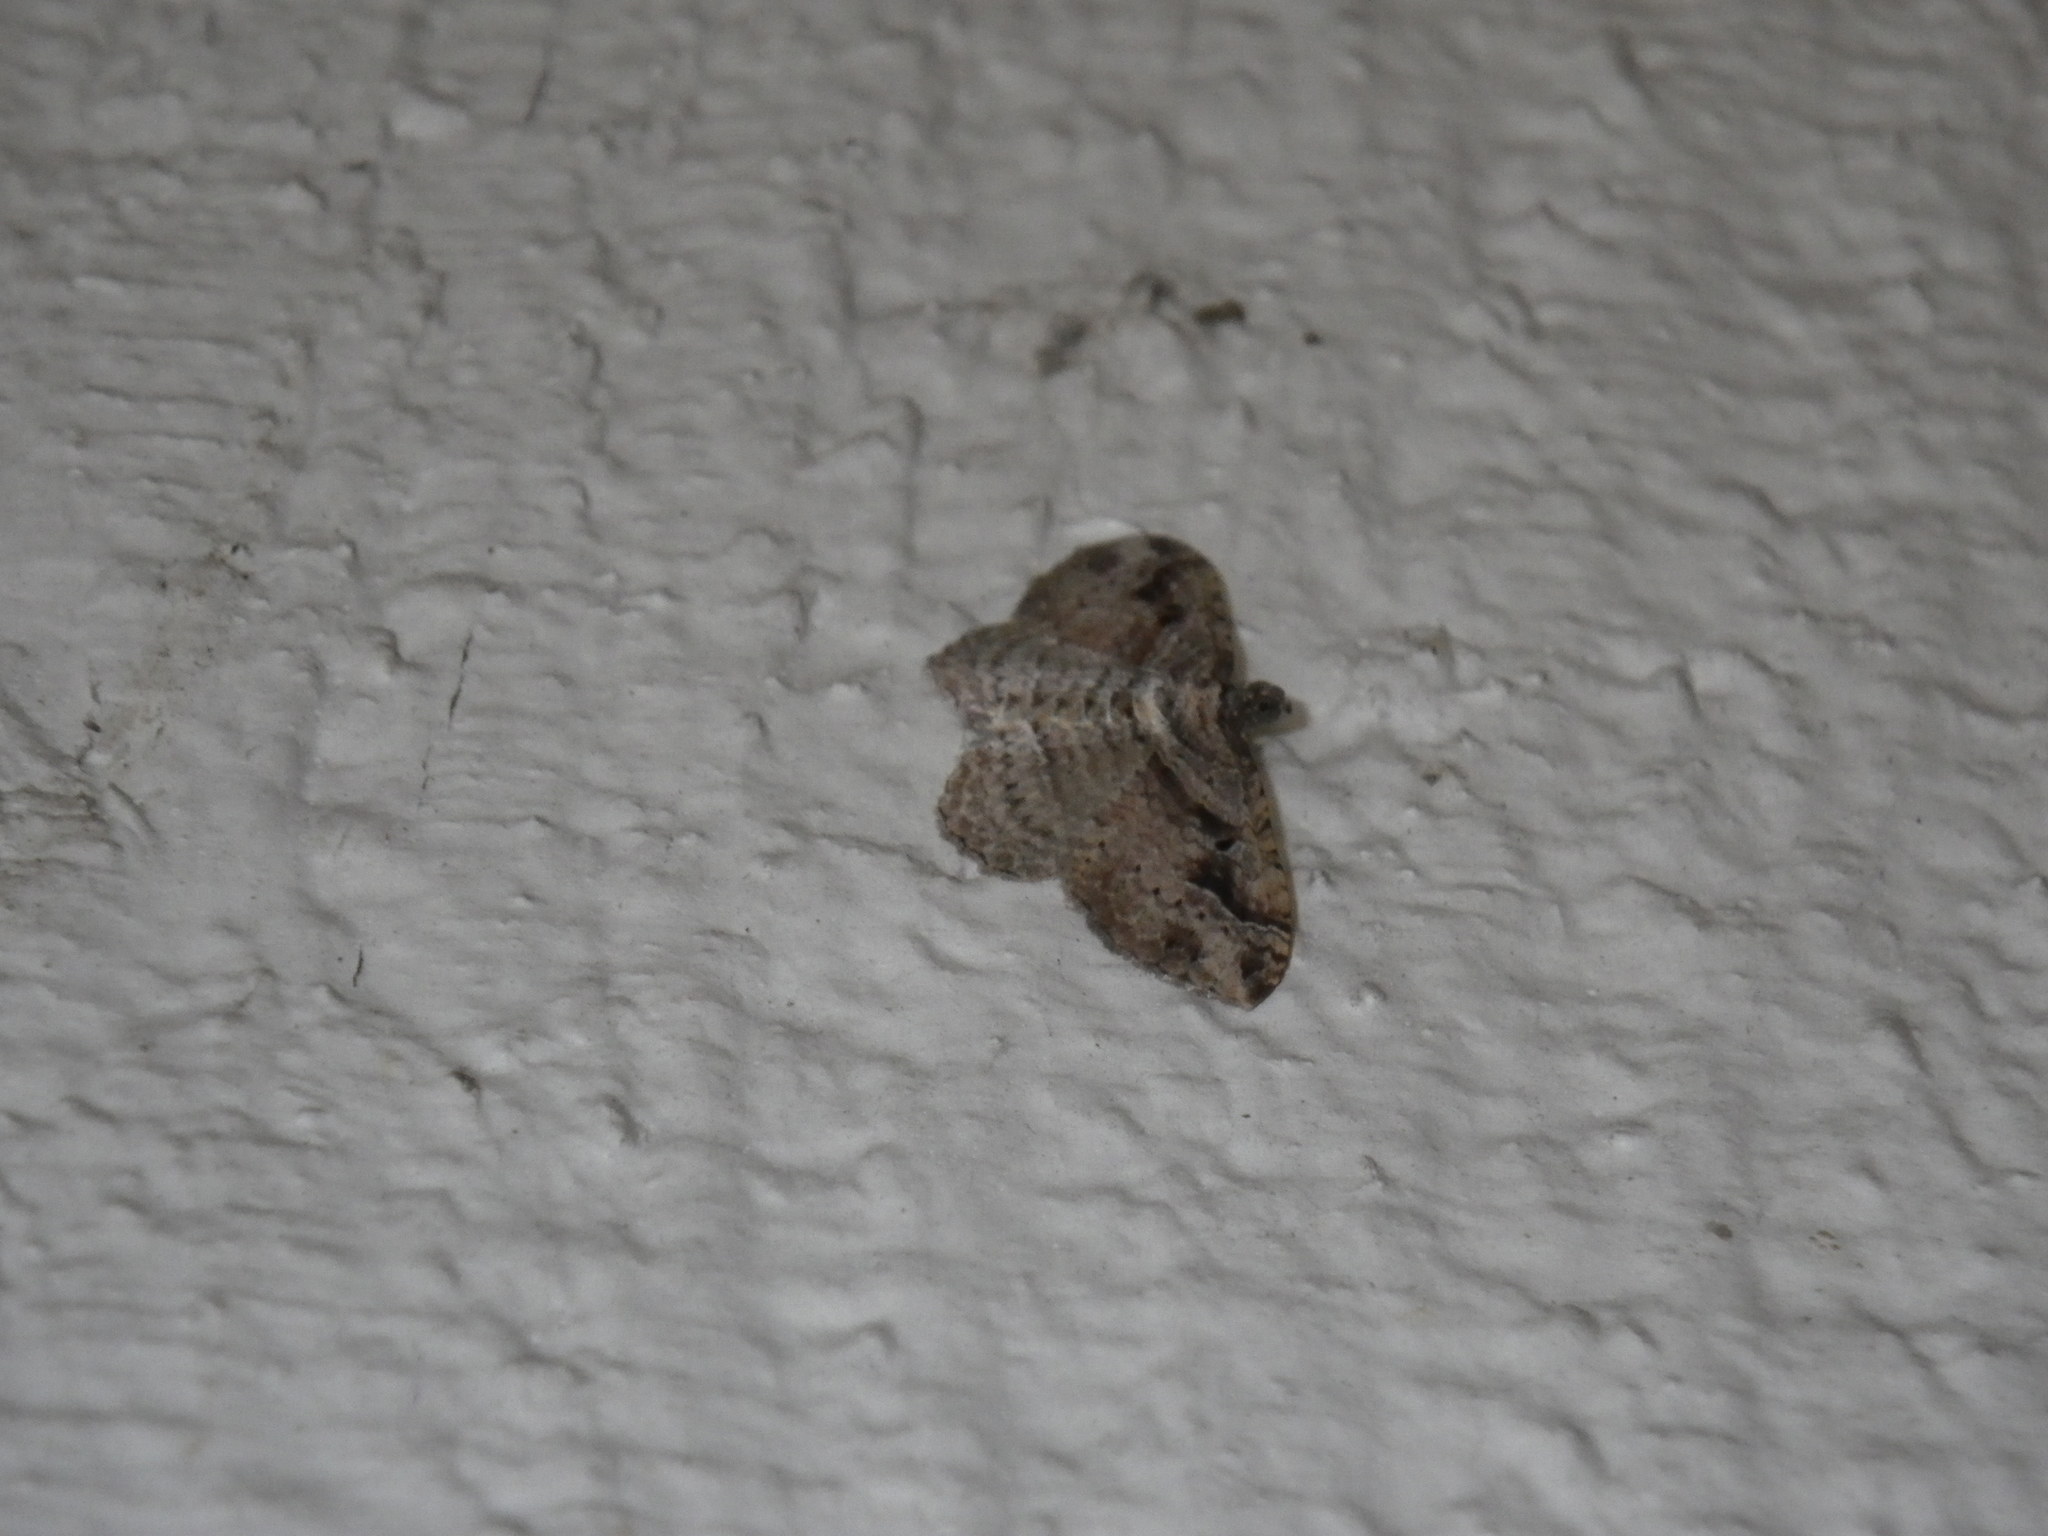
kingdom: Animalia
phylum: Arthropoda
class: Insecta
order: Lepidoptera
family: Geometridae
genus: Costaconvexa
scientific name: Costaconvexa centrostrigaria
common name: Bent-line carpet
